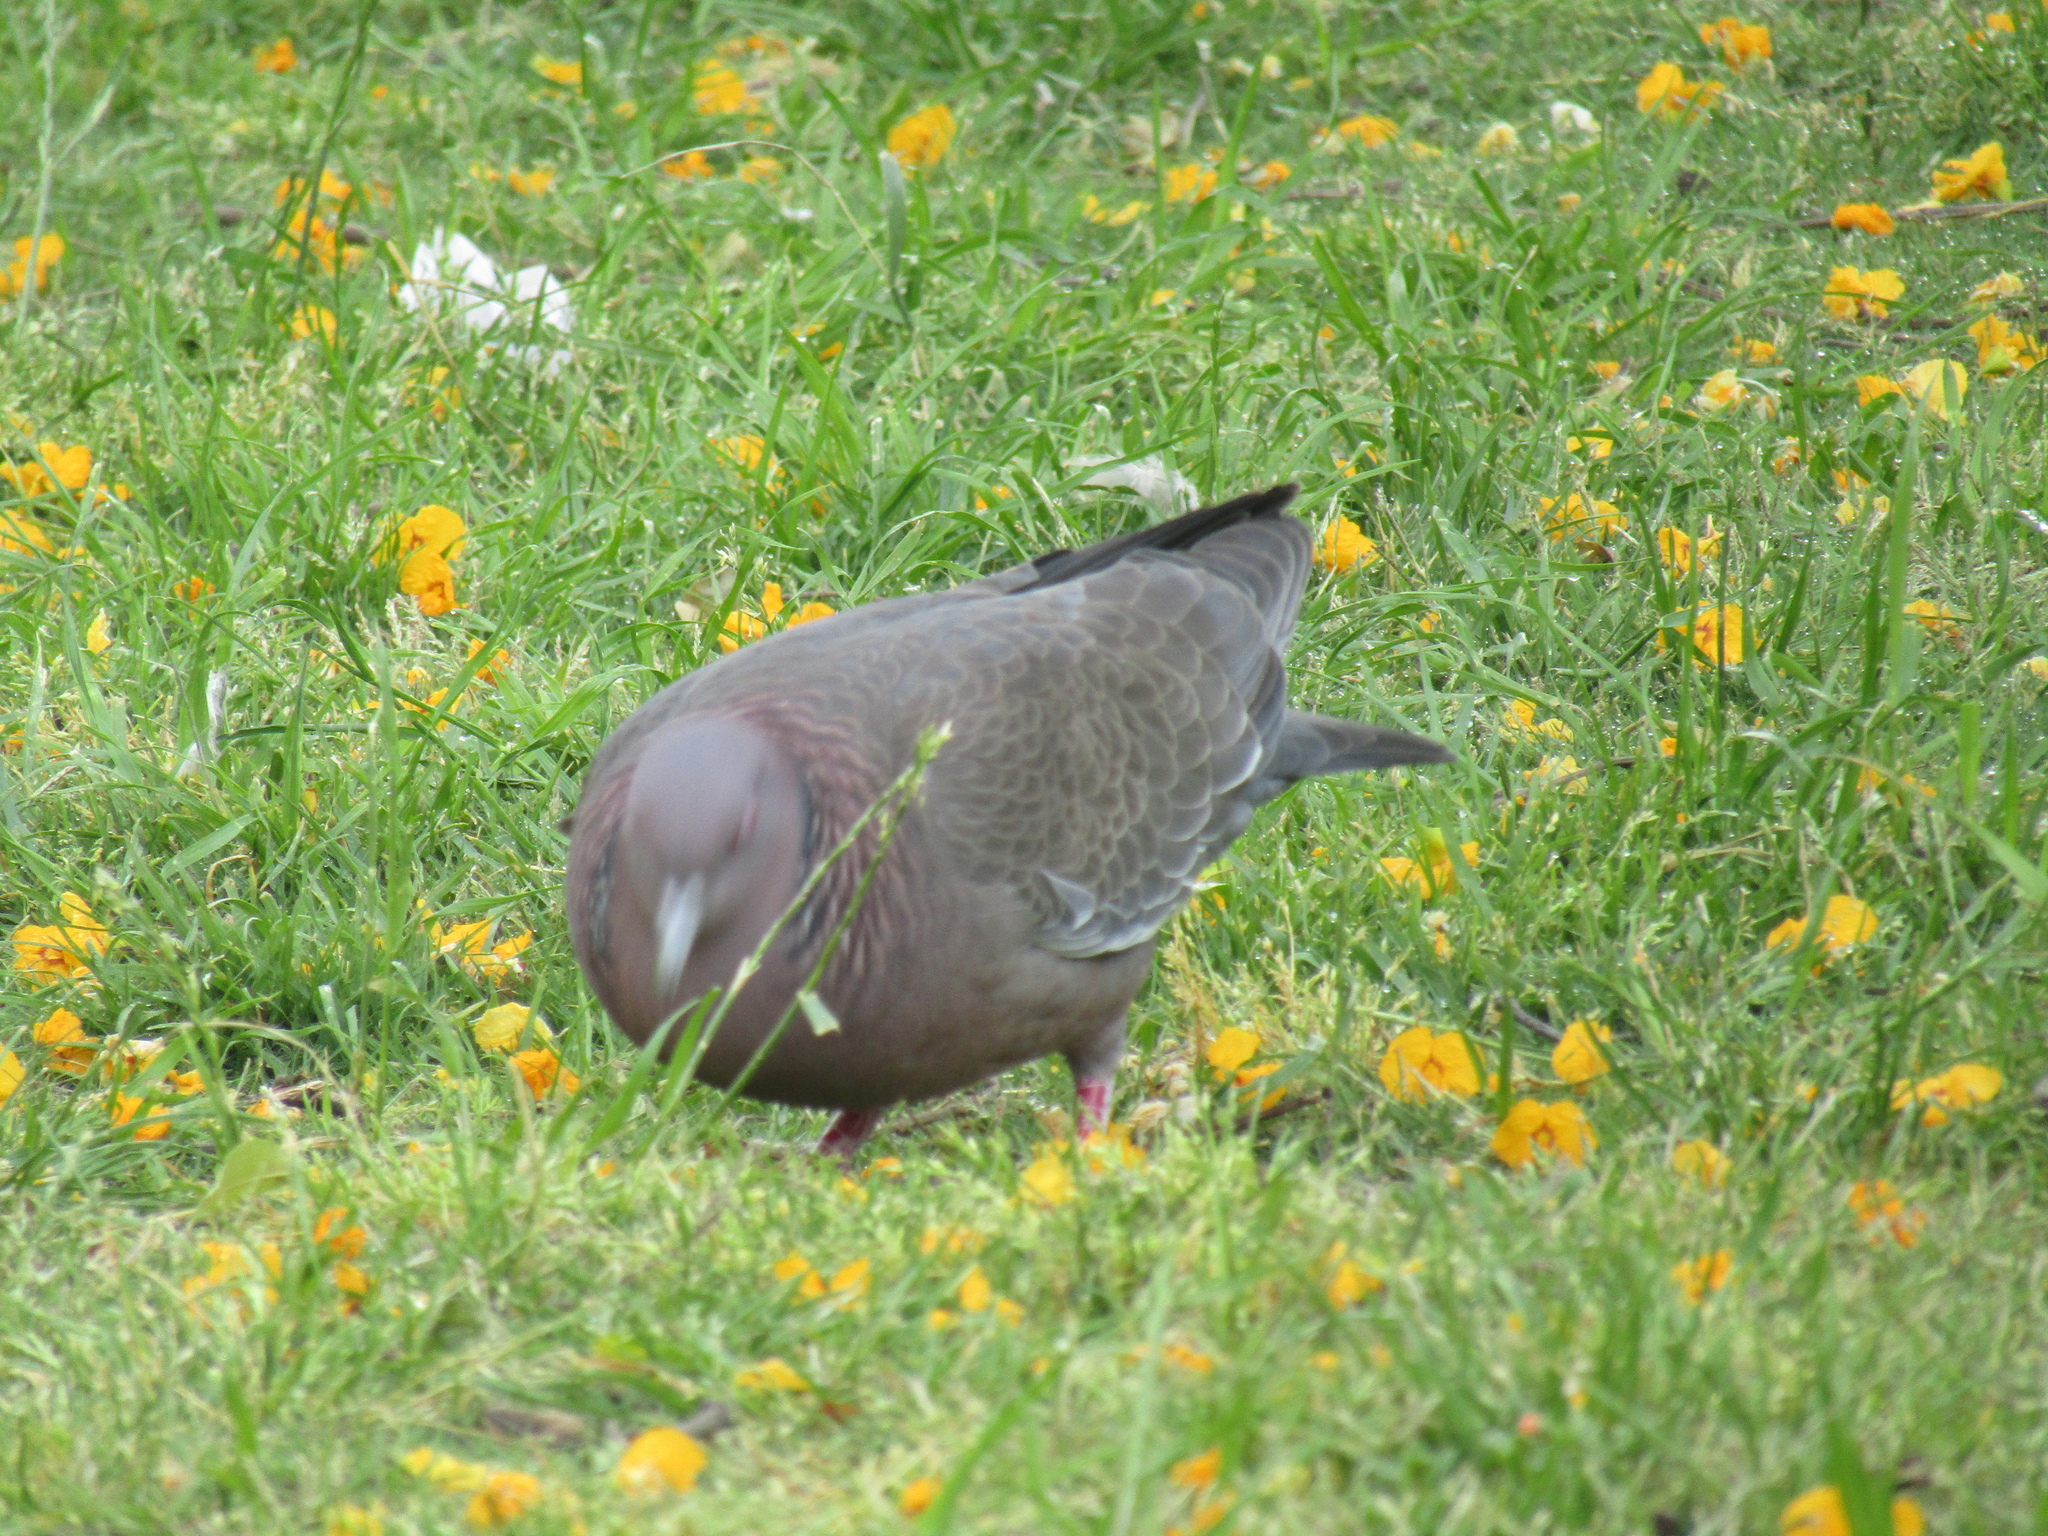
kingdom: Animalia
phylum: Chordata
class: Aves
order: Columbiformes
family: Columbidae
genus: Patagioenas
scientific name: Patagioenas picazuro
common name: Picazuro pigeon
